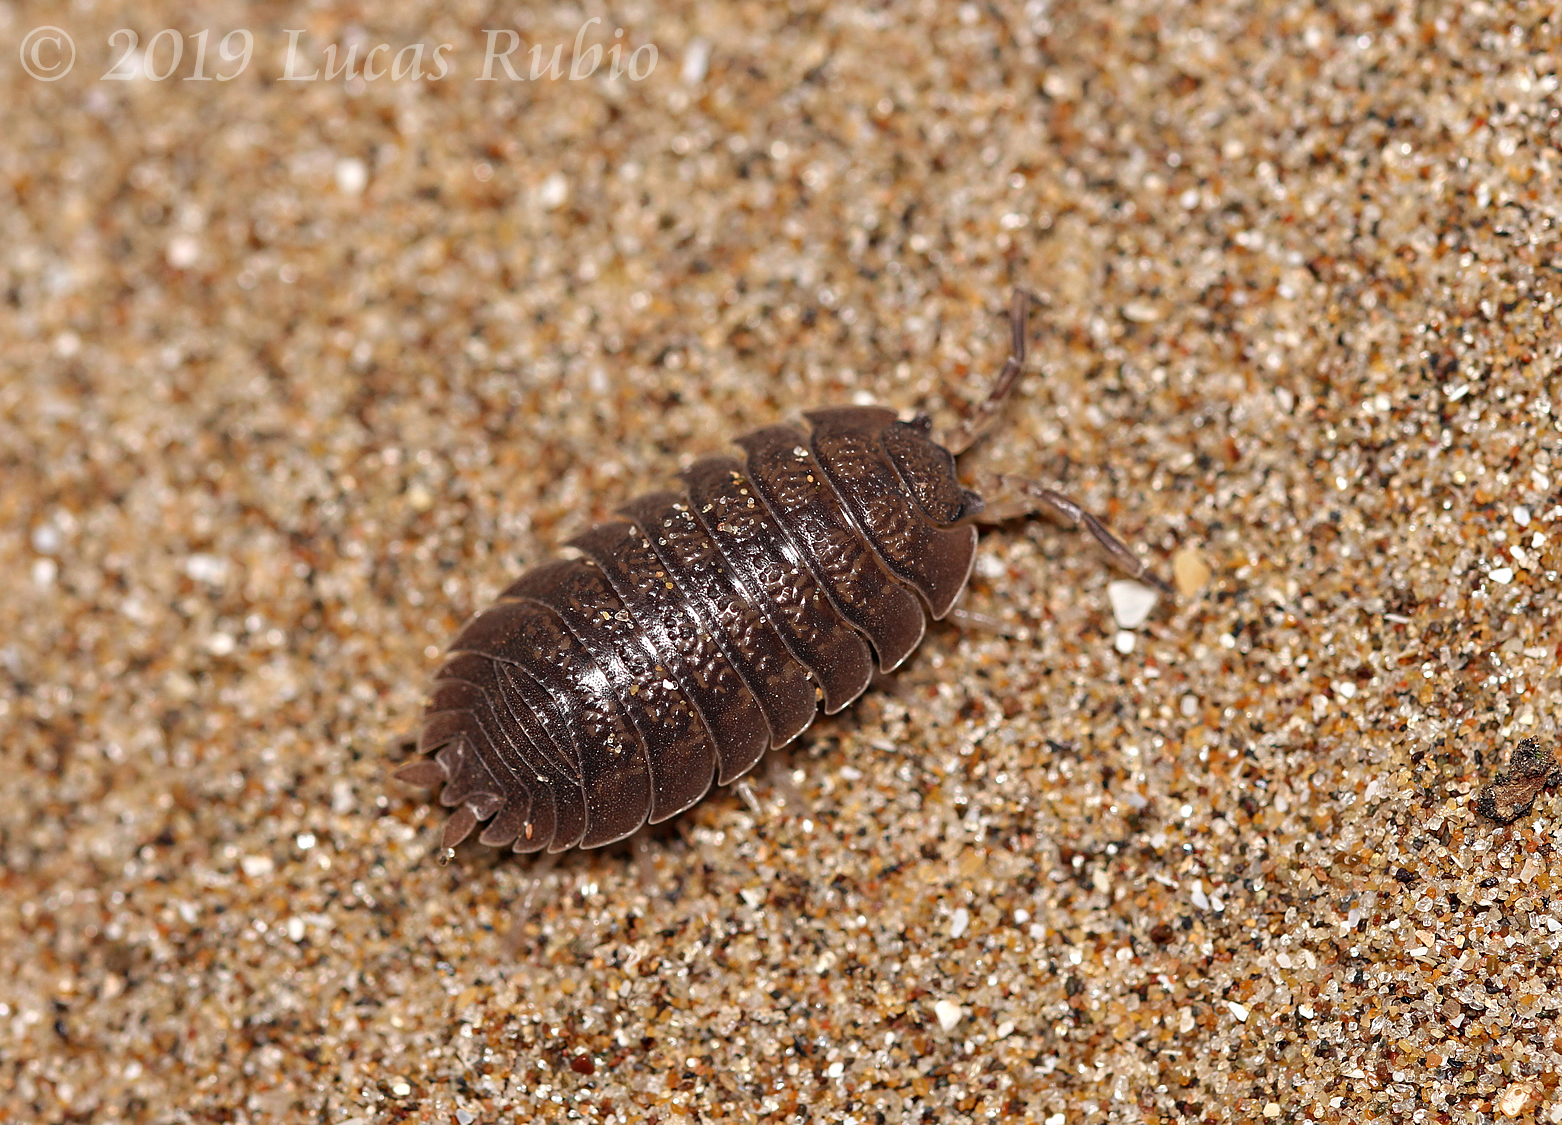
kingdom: Animalia
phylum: Arthropoda
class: Malacostraca
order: Isopoda
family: Porcellionidae
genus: Porcellio
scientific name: Porcellio dilatatus
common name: Isopod
